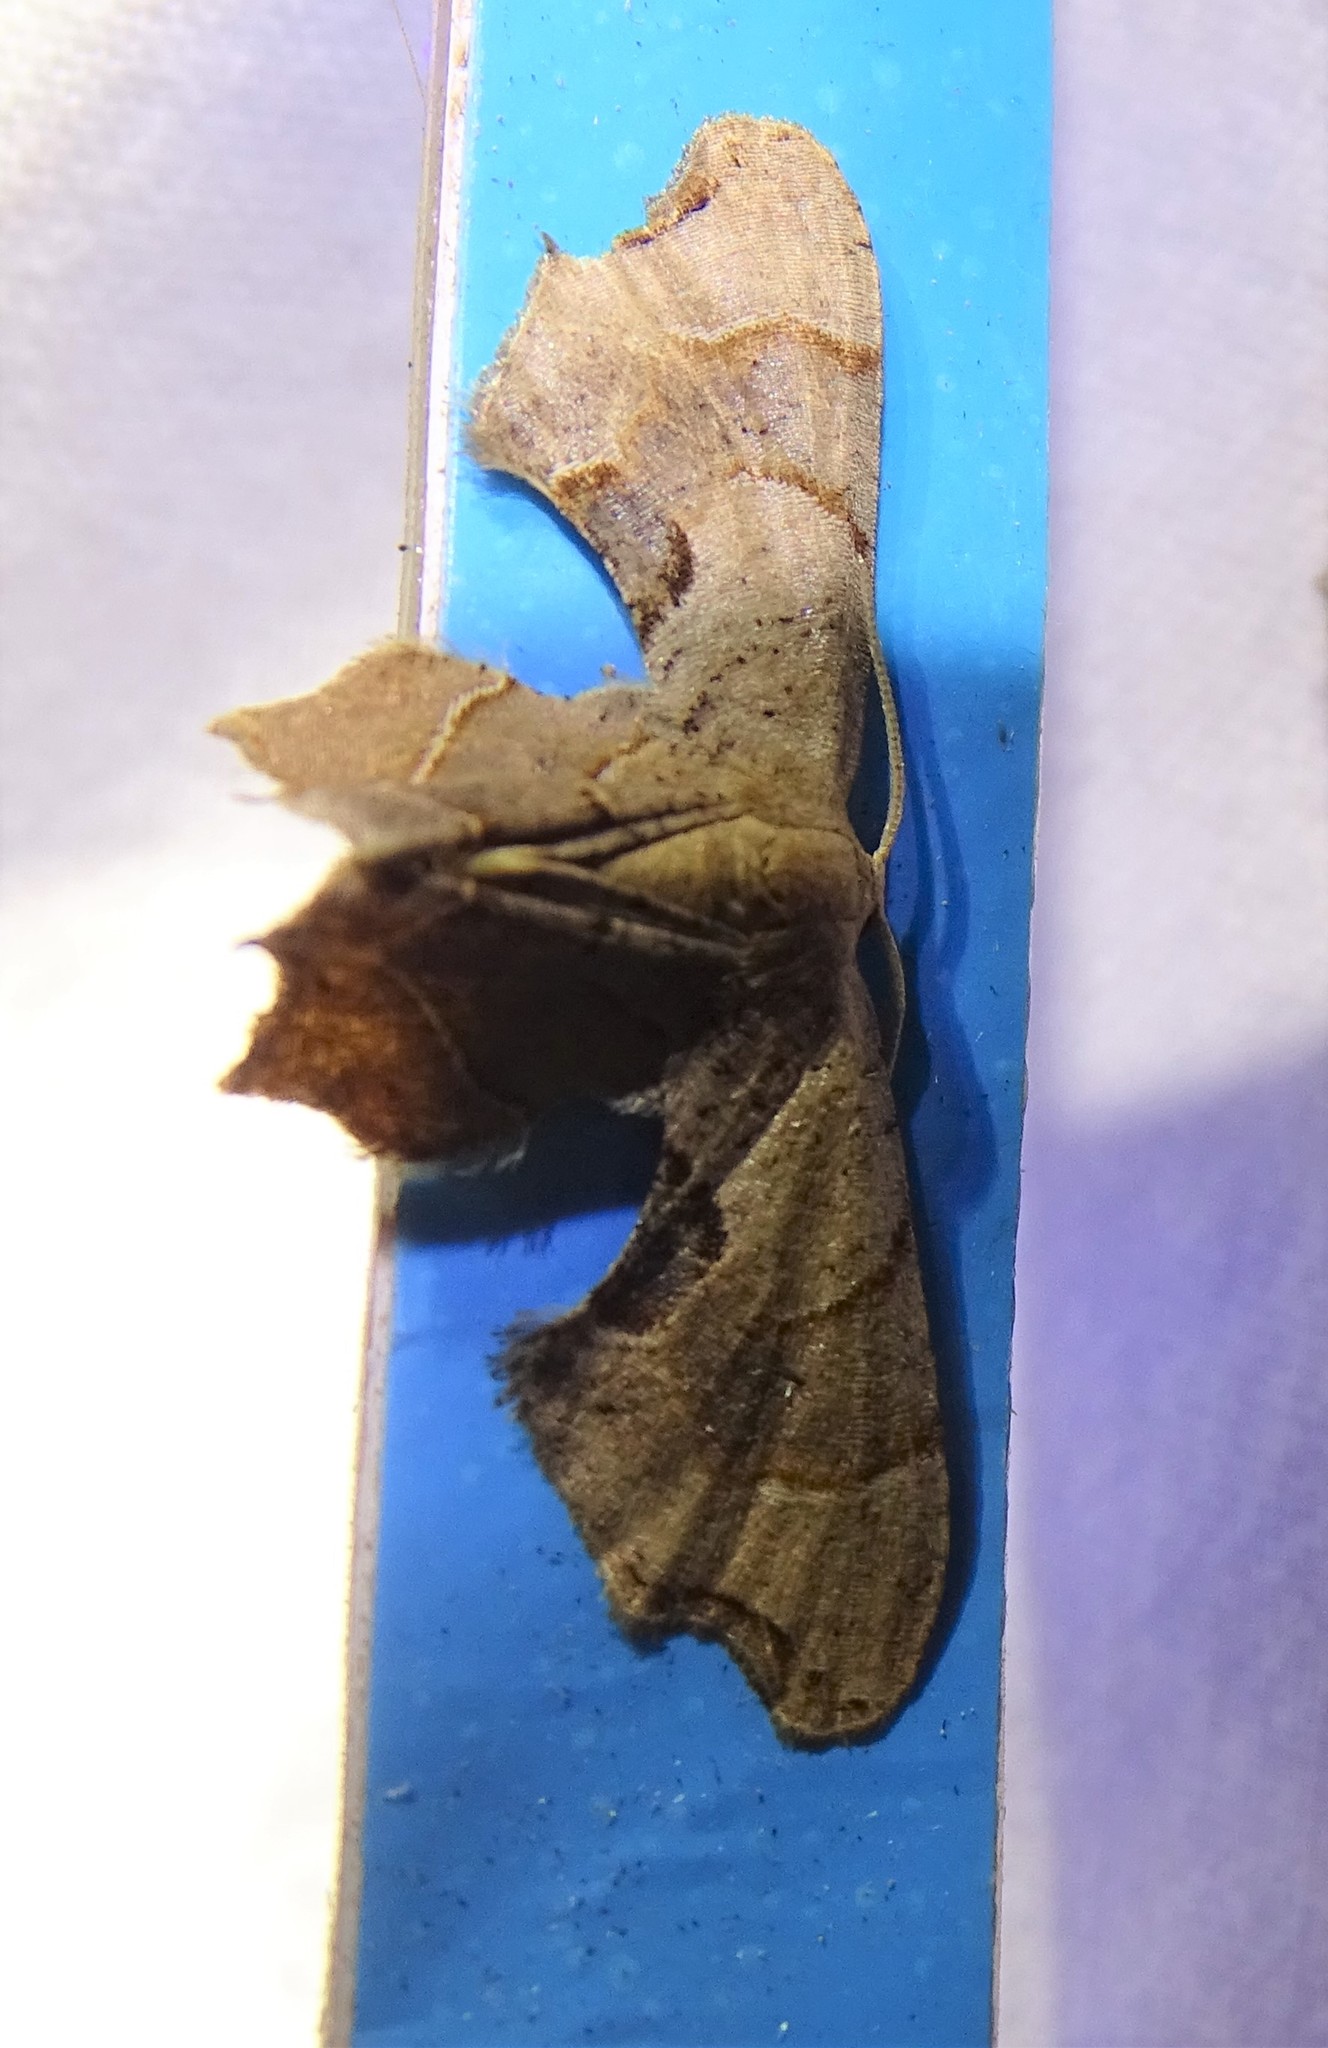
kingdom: Animalia
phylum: Arthropoda
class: Insecta
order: Lepidoptera
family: Uraniidae
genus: Epiplema
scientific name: Epiplema Calledapteryx dryopterata
